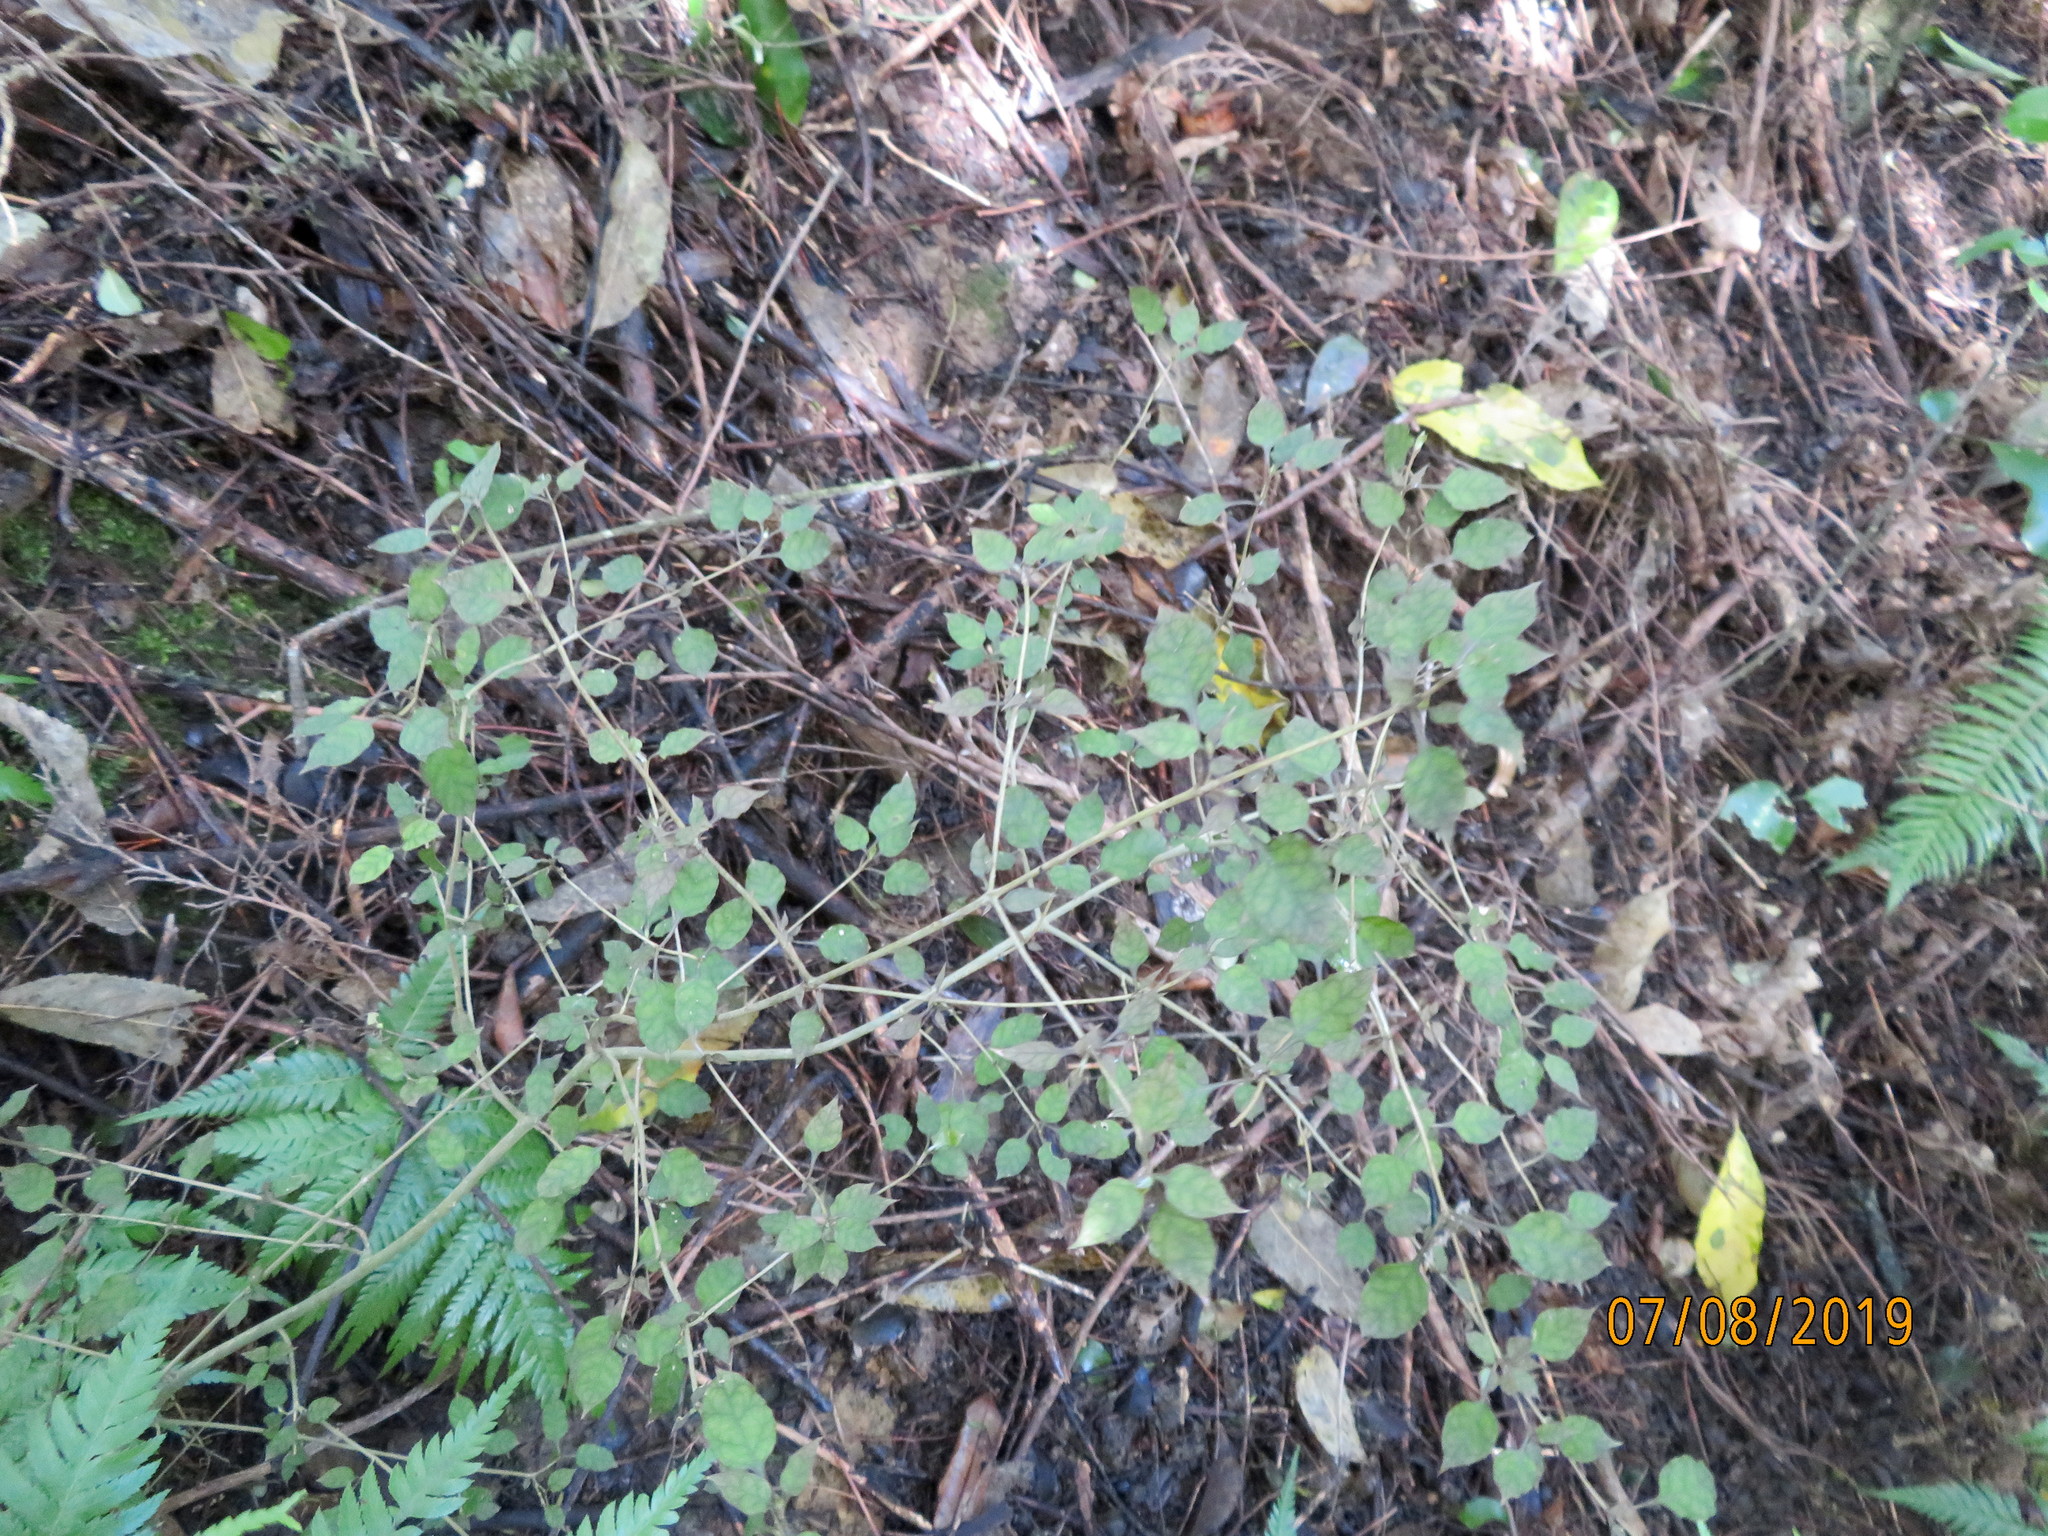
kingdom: Plantae
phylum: Tracheophyta
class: Magnoliopsida
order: Gentianales
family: Rubiaceae
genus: Coprosma
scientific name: Coprosma areolata
